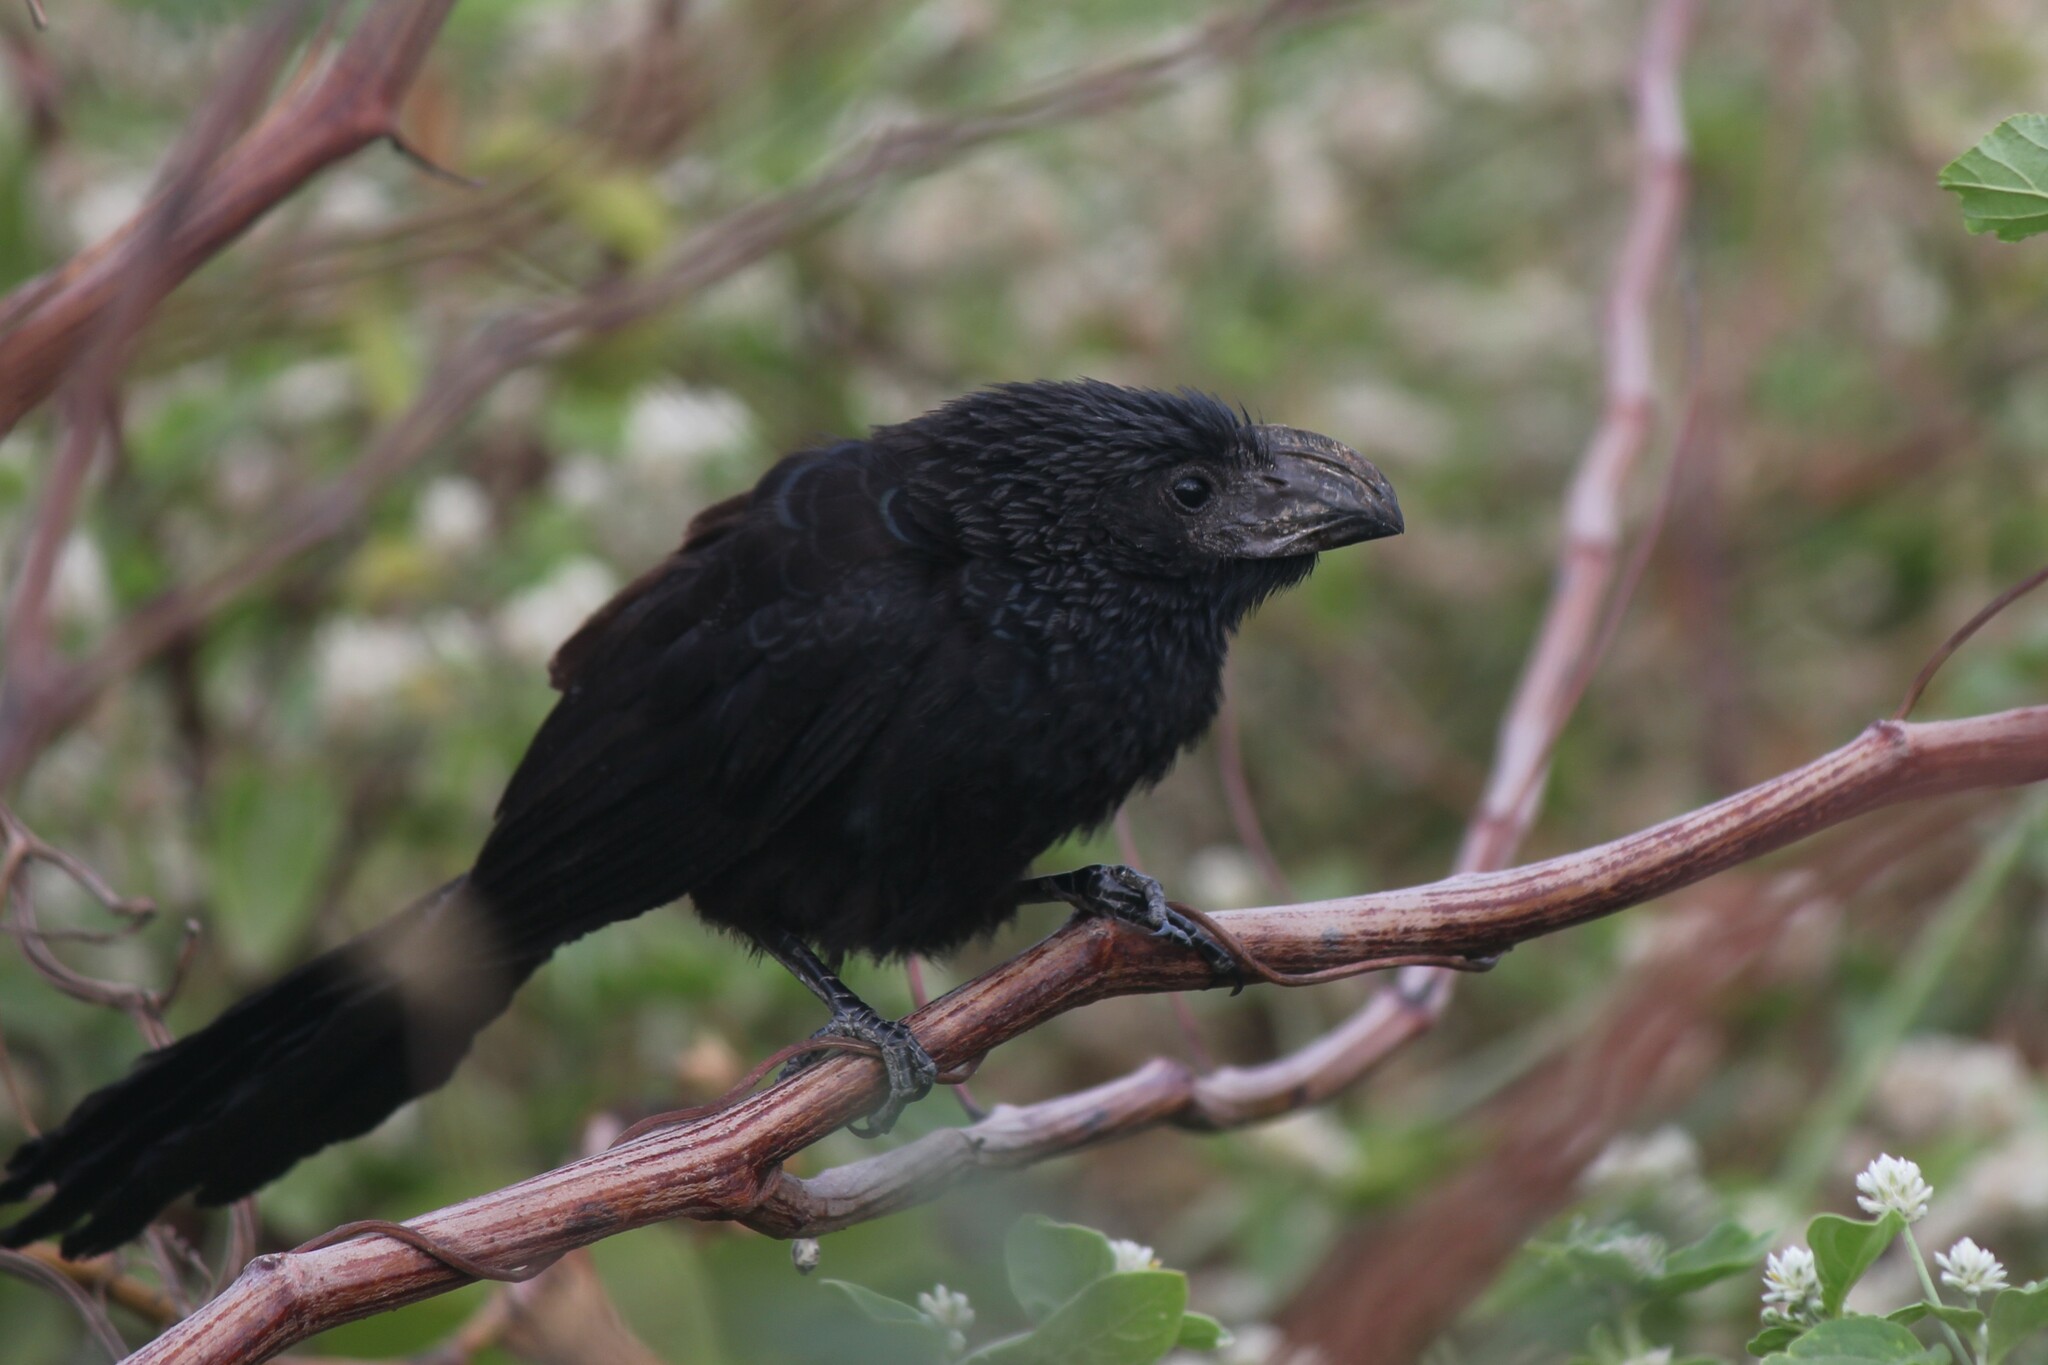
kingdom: Animalia
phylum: Chordata
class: Aves
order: Cuculiformes
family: Cuculidae
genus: Crotophaga
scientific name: Crotophaga sulcirostris
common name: Groove-billed ani
